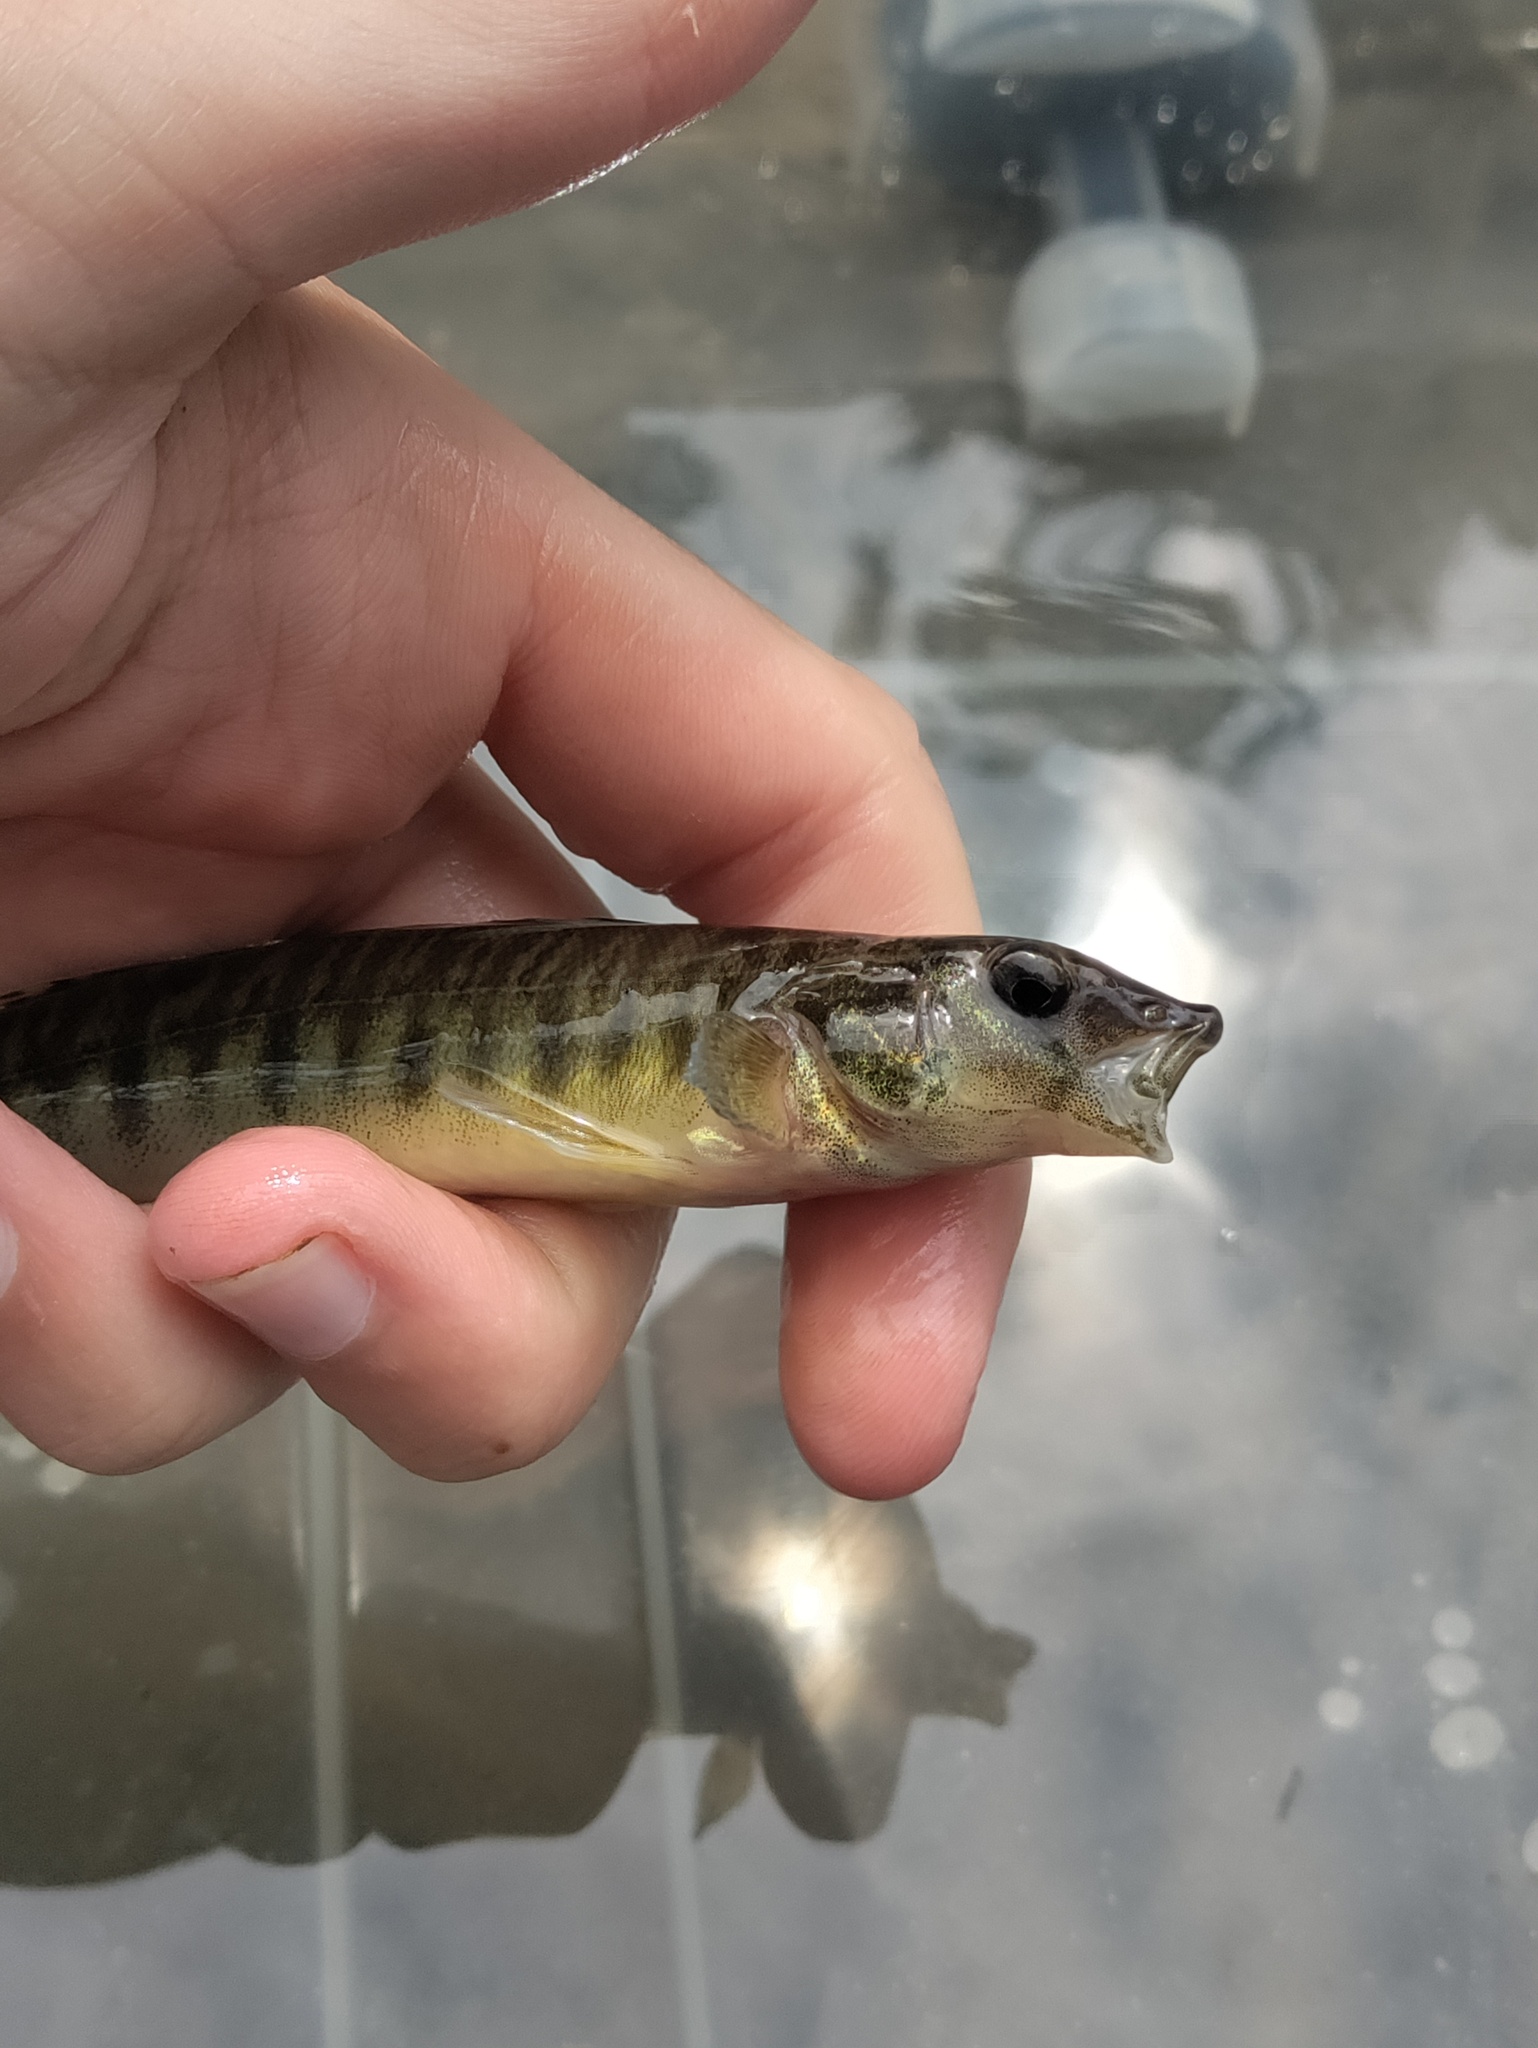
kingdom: Animalia
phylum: Chordata
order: Perciformes
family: Percidae
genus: Percina
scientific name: Percina caprodes
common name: Logperch
